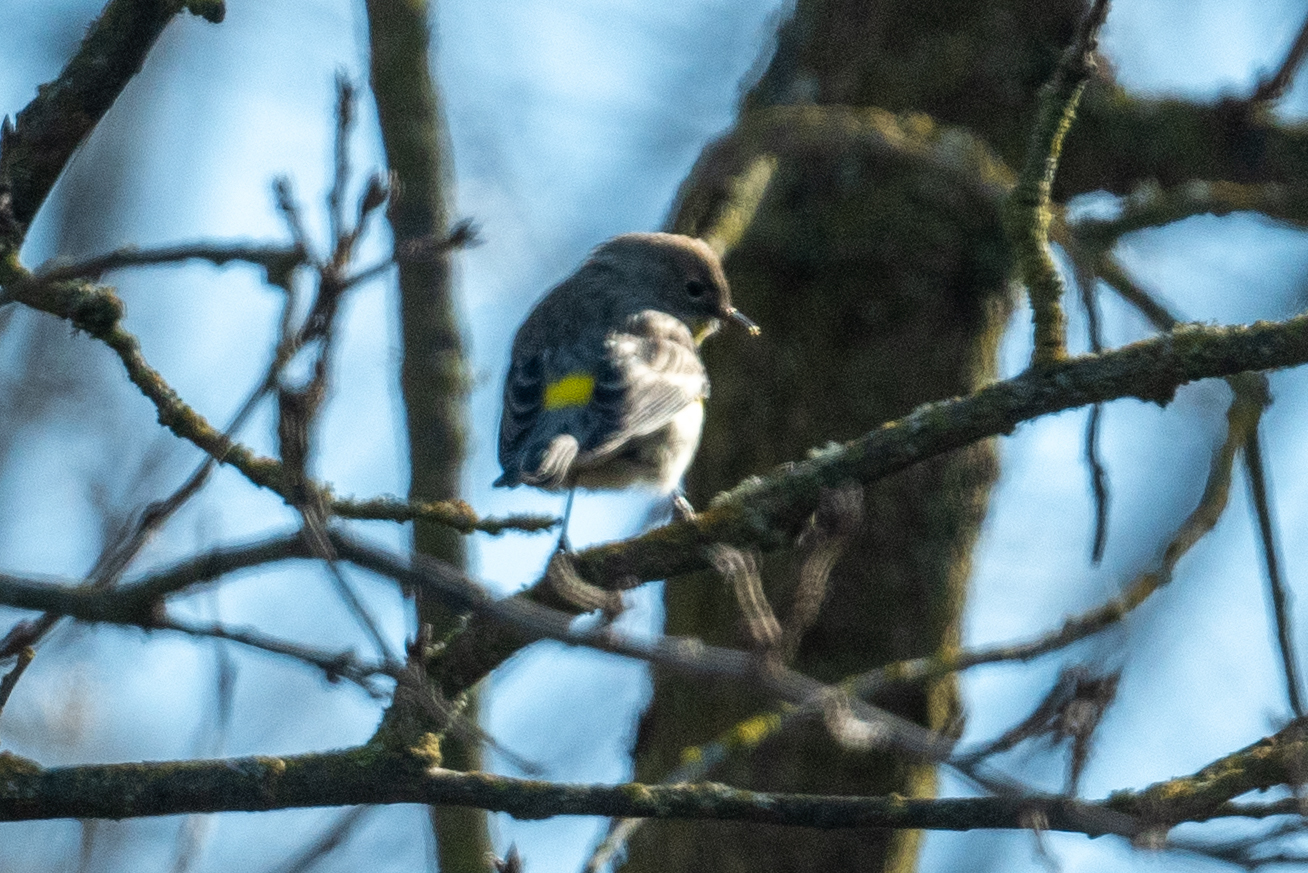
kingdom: Animalia
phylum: Chordata
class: Aves
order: Passeriformes
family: Parulidae
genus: Setophaga
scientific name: Setophaga coronata
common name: Myrtle warbler
